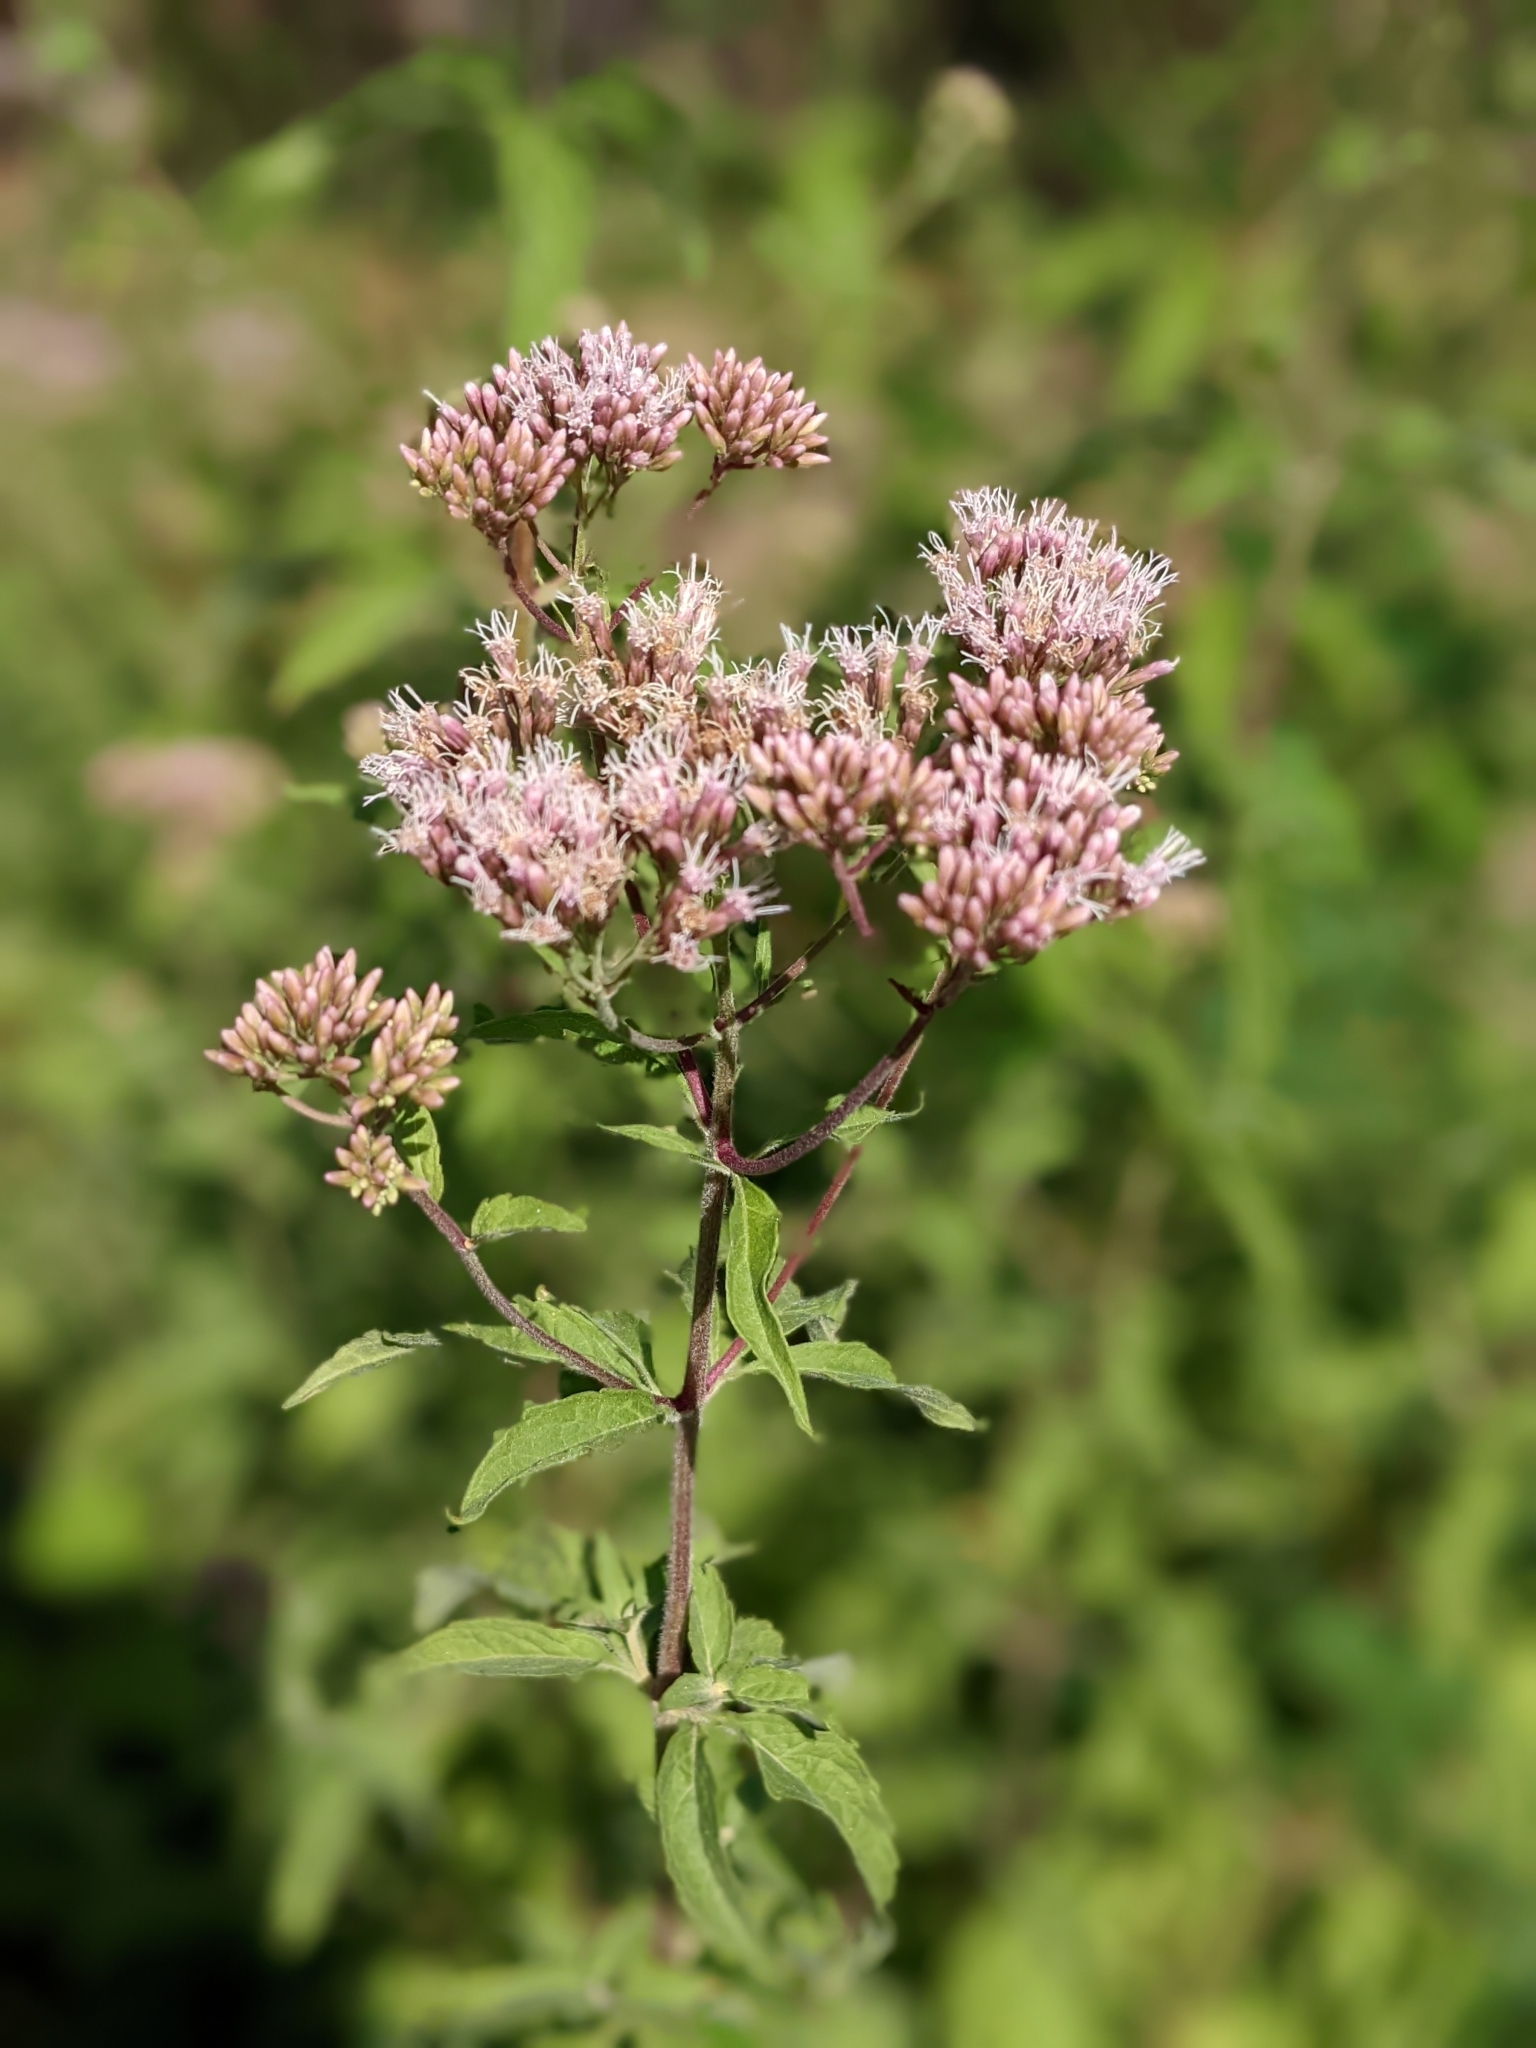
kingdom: Plantae
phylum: Tracheophyta
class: Magnoliopsida
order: Asterales
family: Asteraceae
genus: Eupatorium
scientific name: Eupatorium cannabinum
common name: Hemp-agrimony
